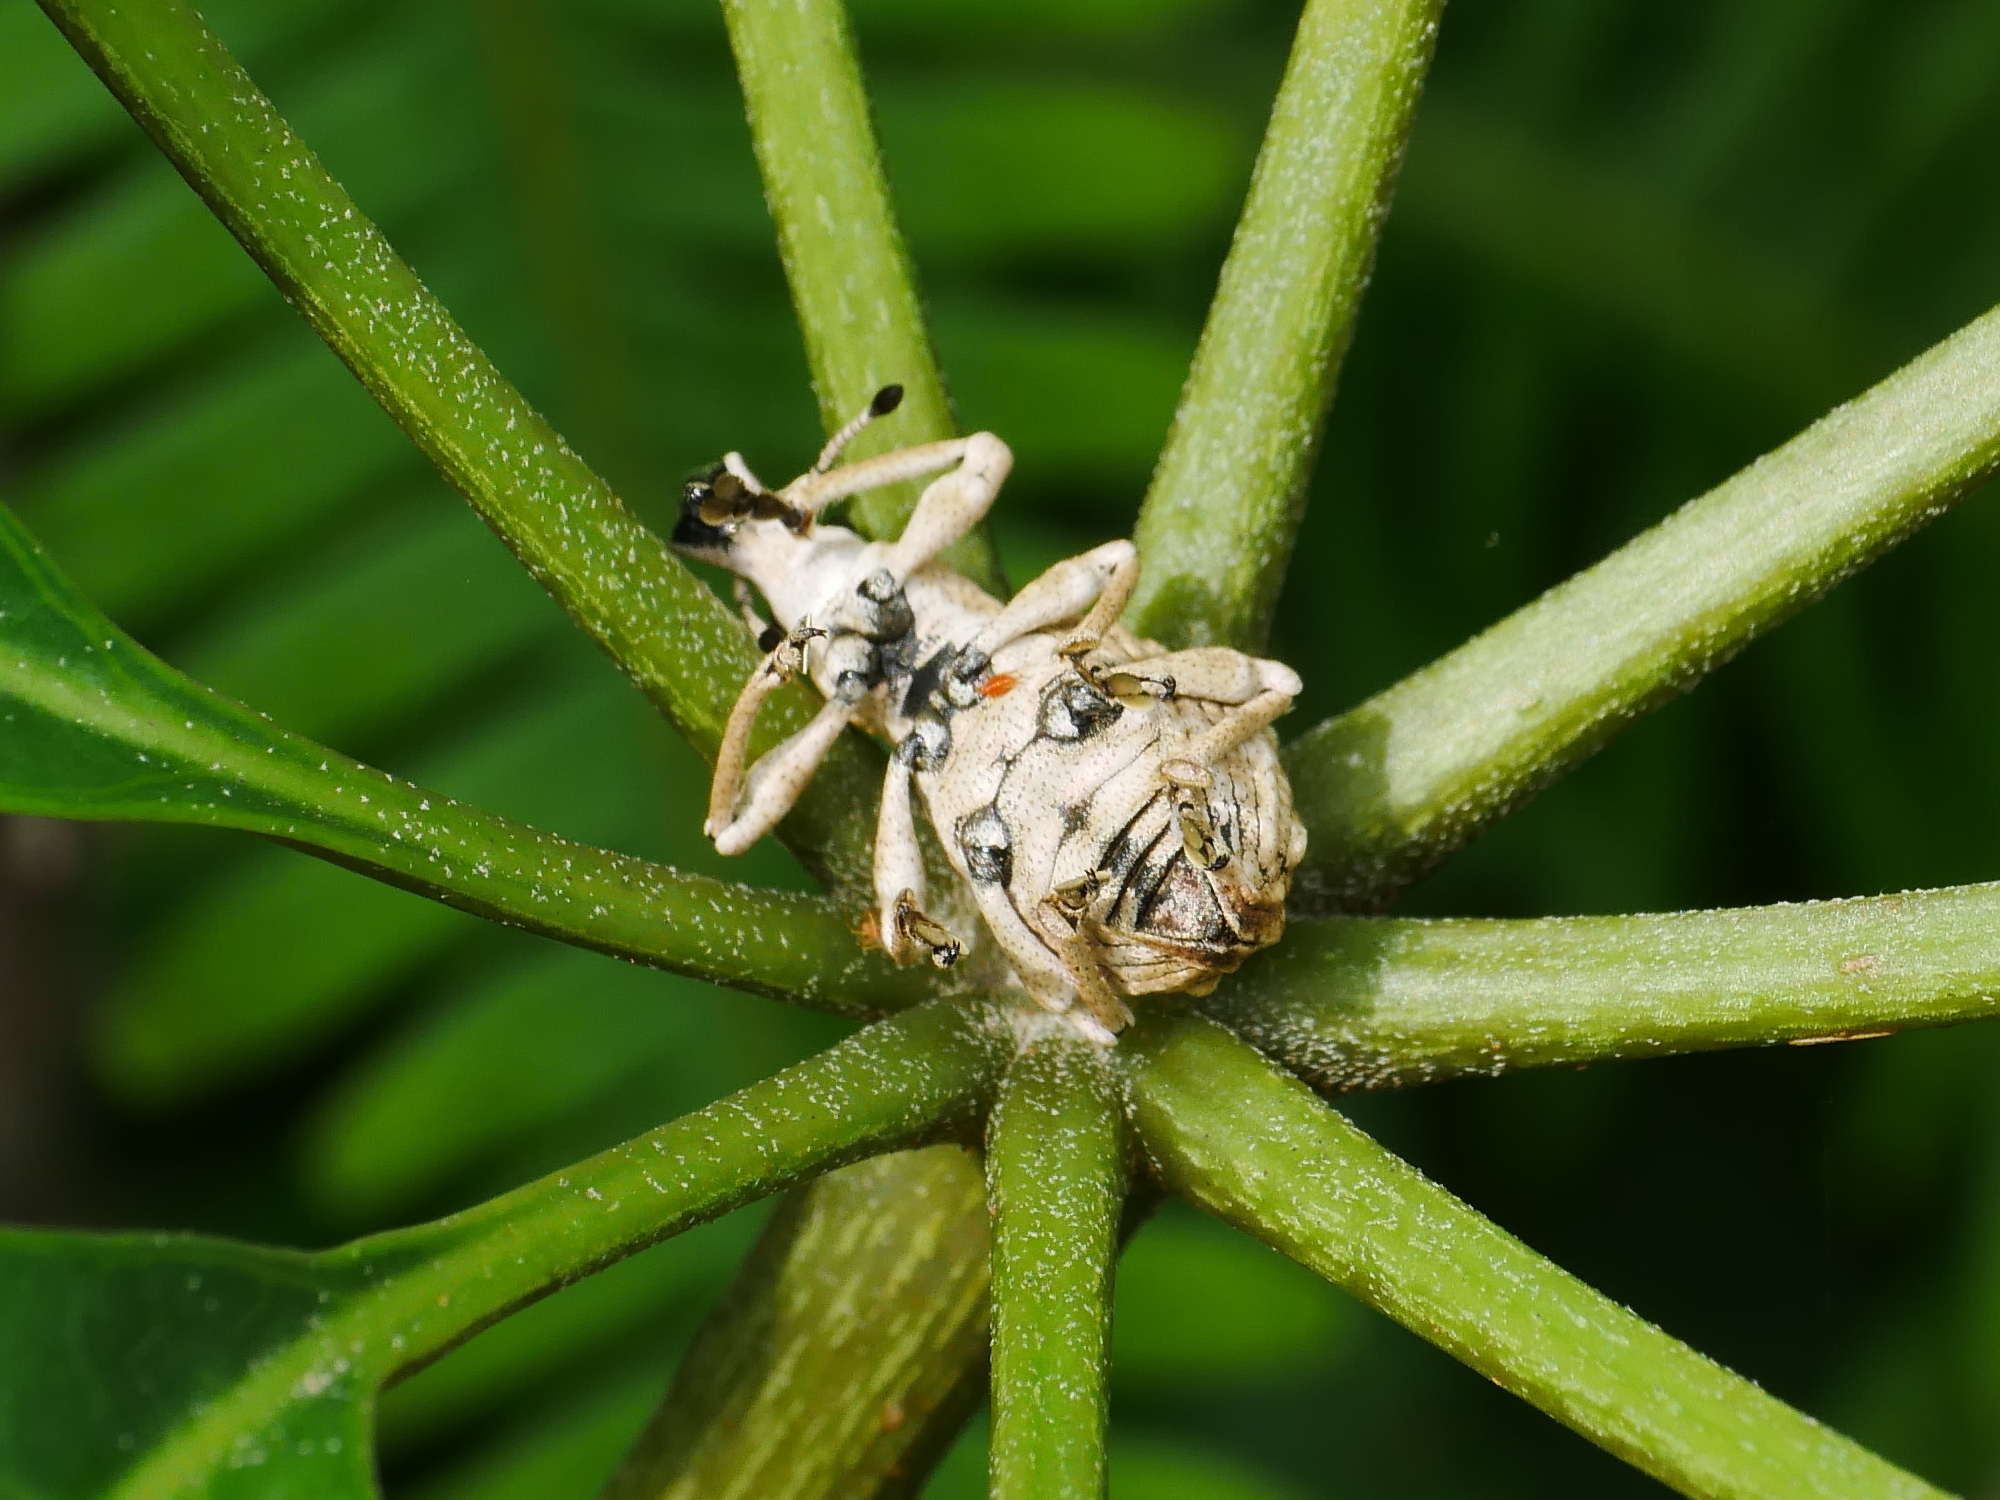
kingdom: Animalia
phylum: Arthropoda
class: Insecta
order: Coleoptera
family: Curculionidae
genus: Dermatoxenus
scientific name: Dermatoxenus caesicollis
